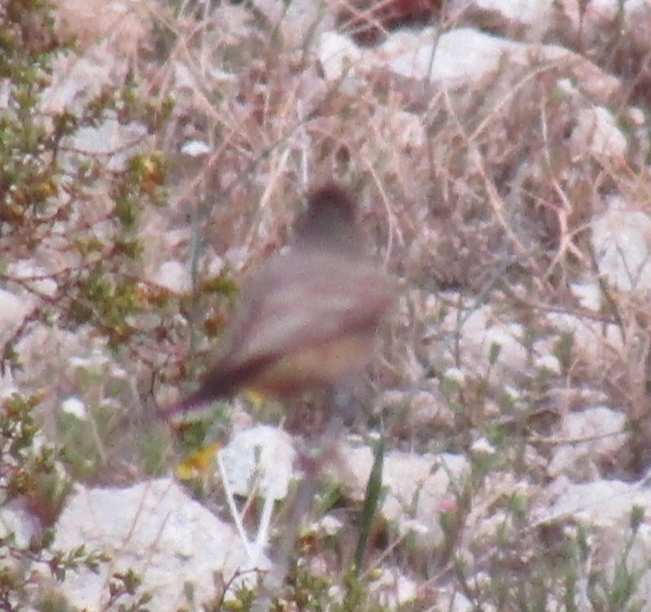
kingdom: Animalia
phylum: Chordata
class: Aves
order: Passeriformes
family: Tyrannidae
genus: Sayornis
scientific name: Sayornis saya
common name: Say's phoebe
